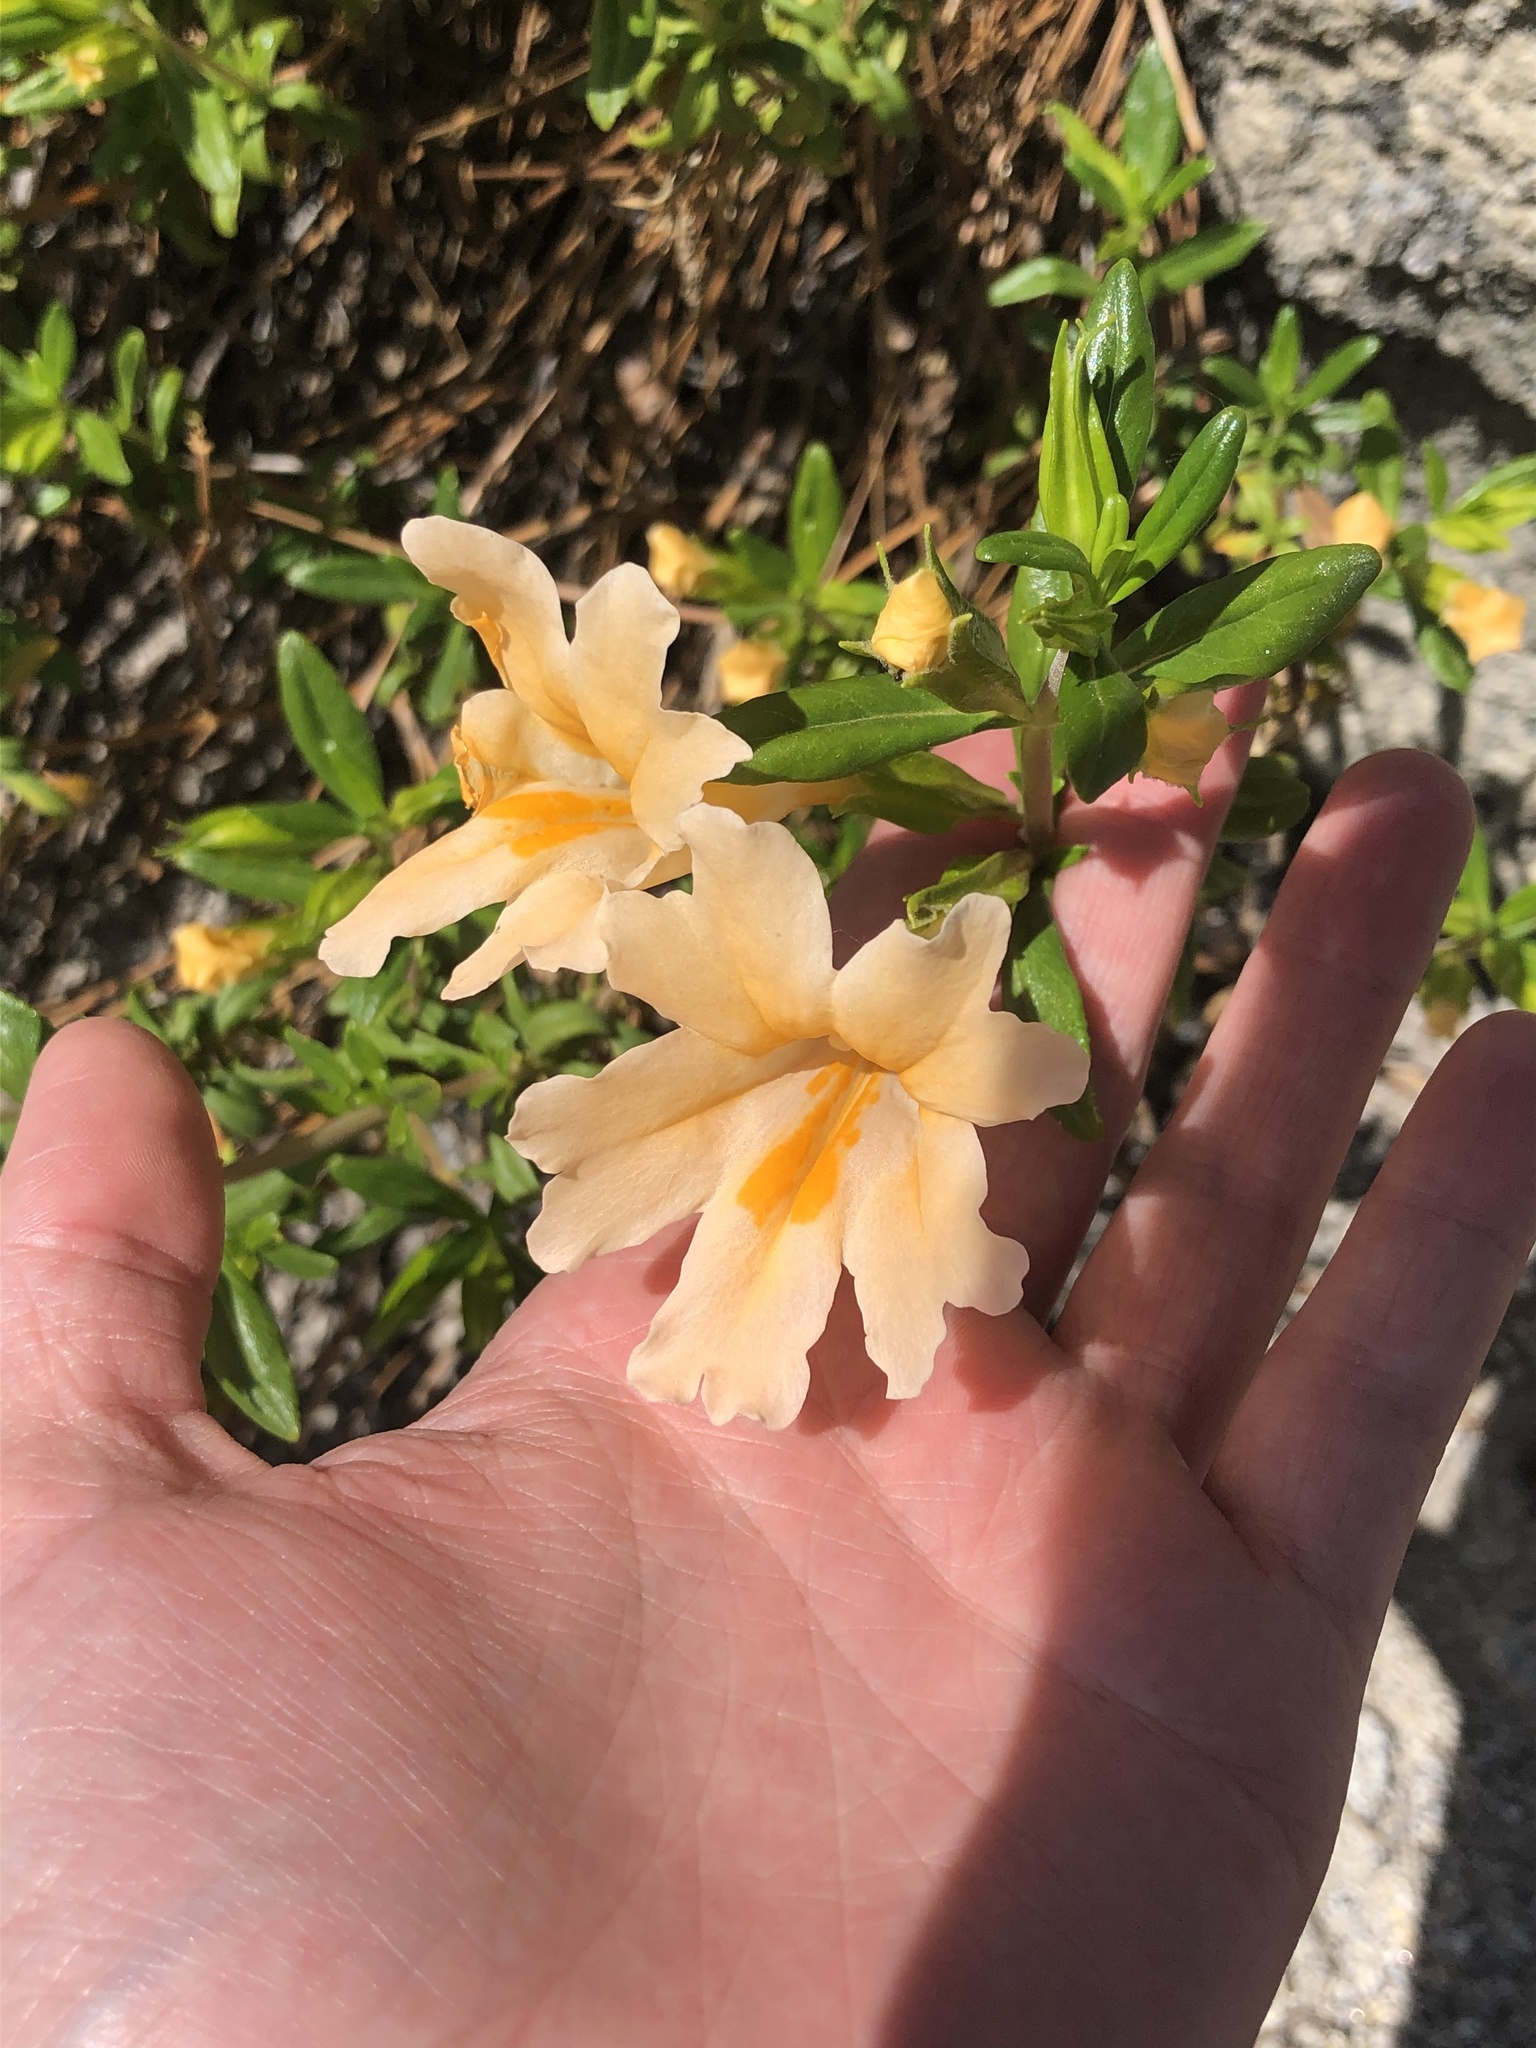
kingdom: Plantae
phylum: Tracheophyta
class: Magnoliopsida
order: Lamiales
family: Phrymaceae
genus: Diplacus
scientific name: Diplacus grandiflorus
